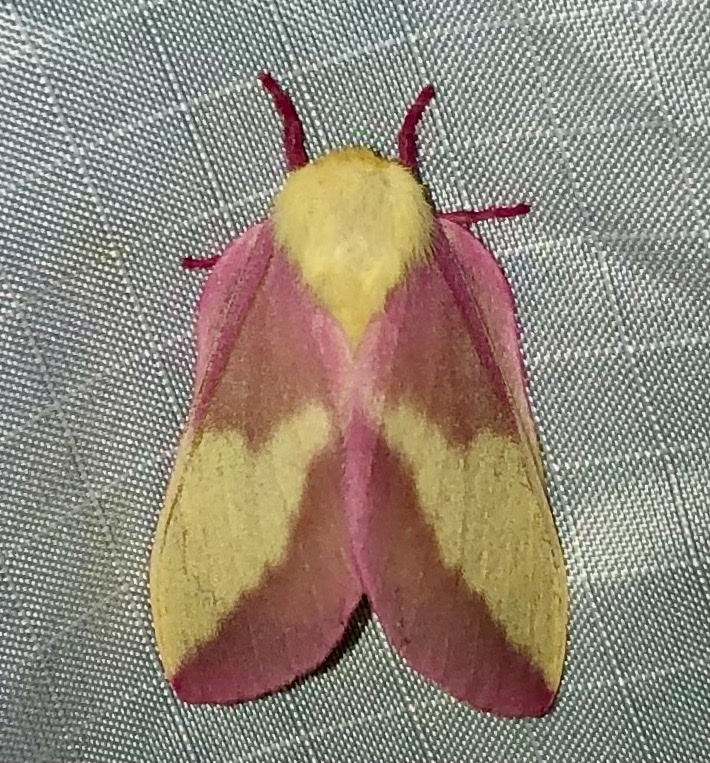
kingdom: Animalia
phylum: Arthropoda
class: Insecta
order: Lepidoptera
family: Saturniidae
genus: Dryocampa
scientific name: Dryocampa rubicunda
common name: Rosy maple moth
